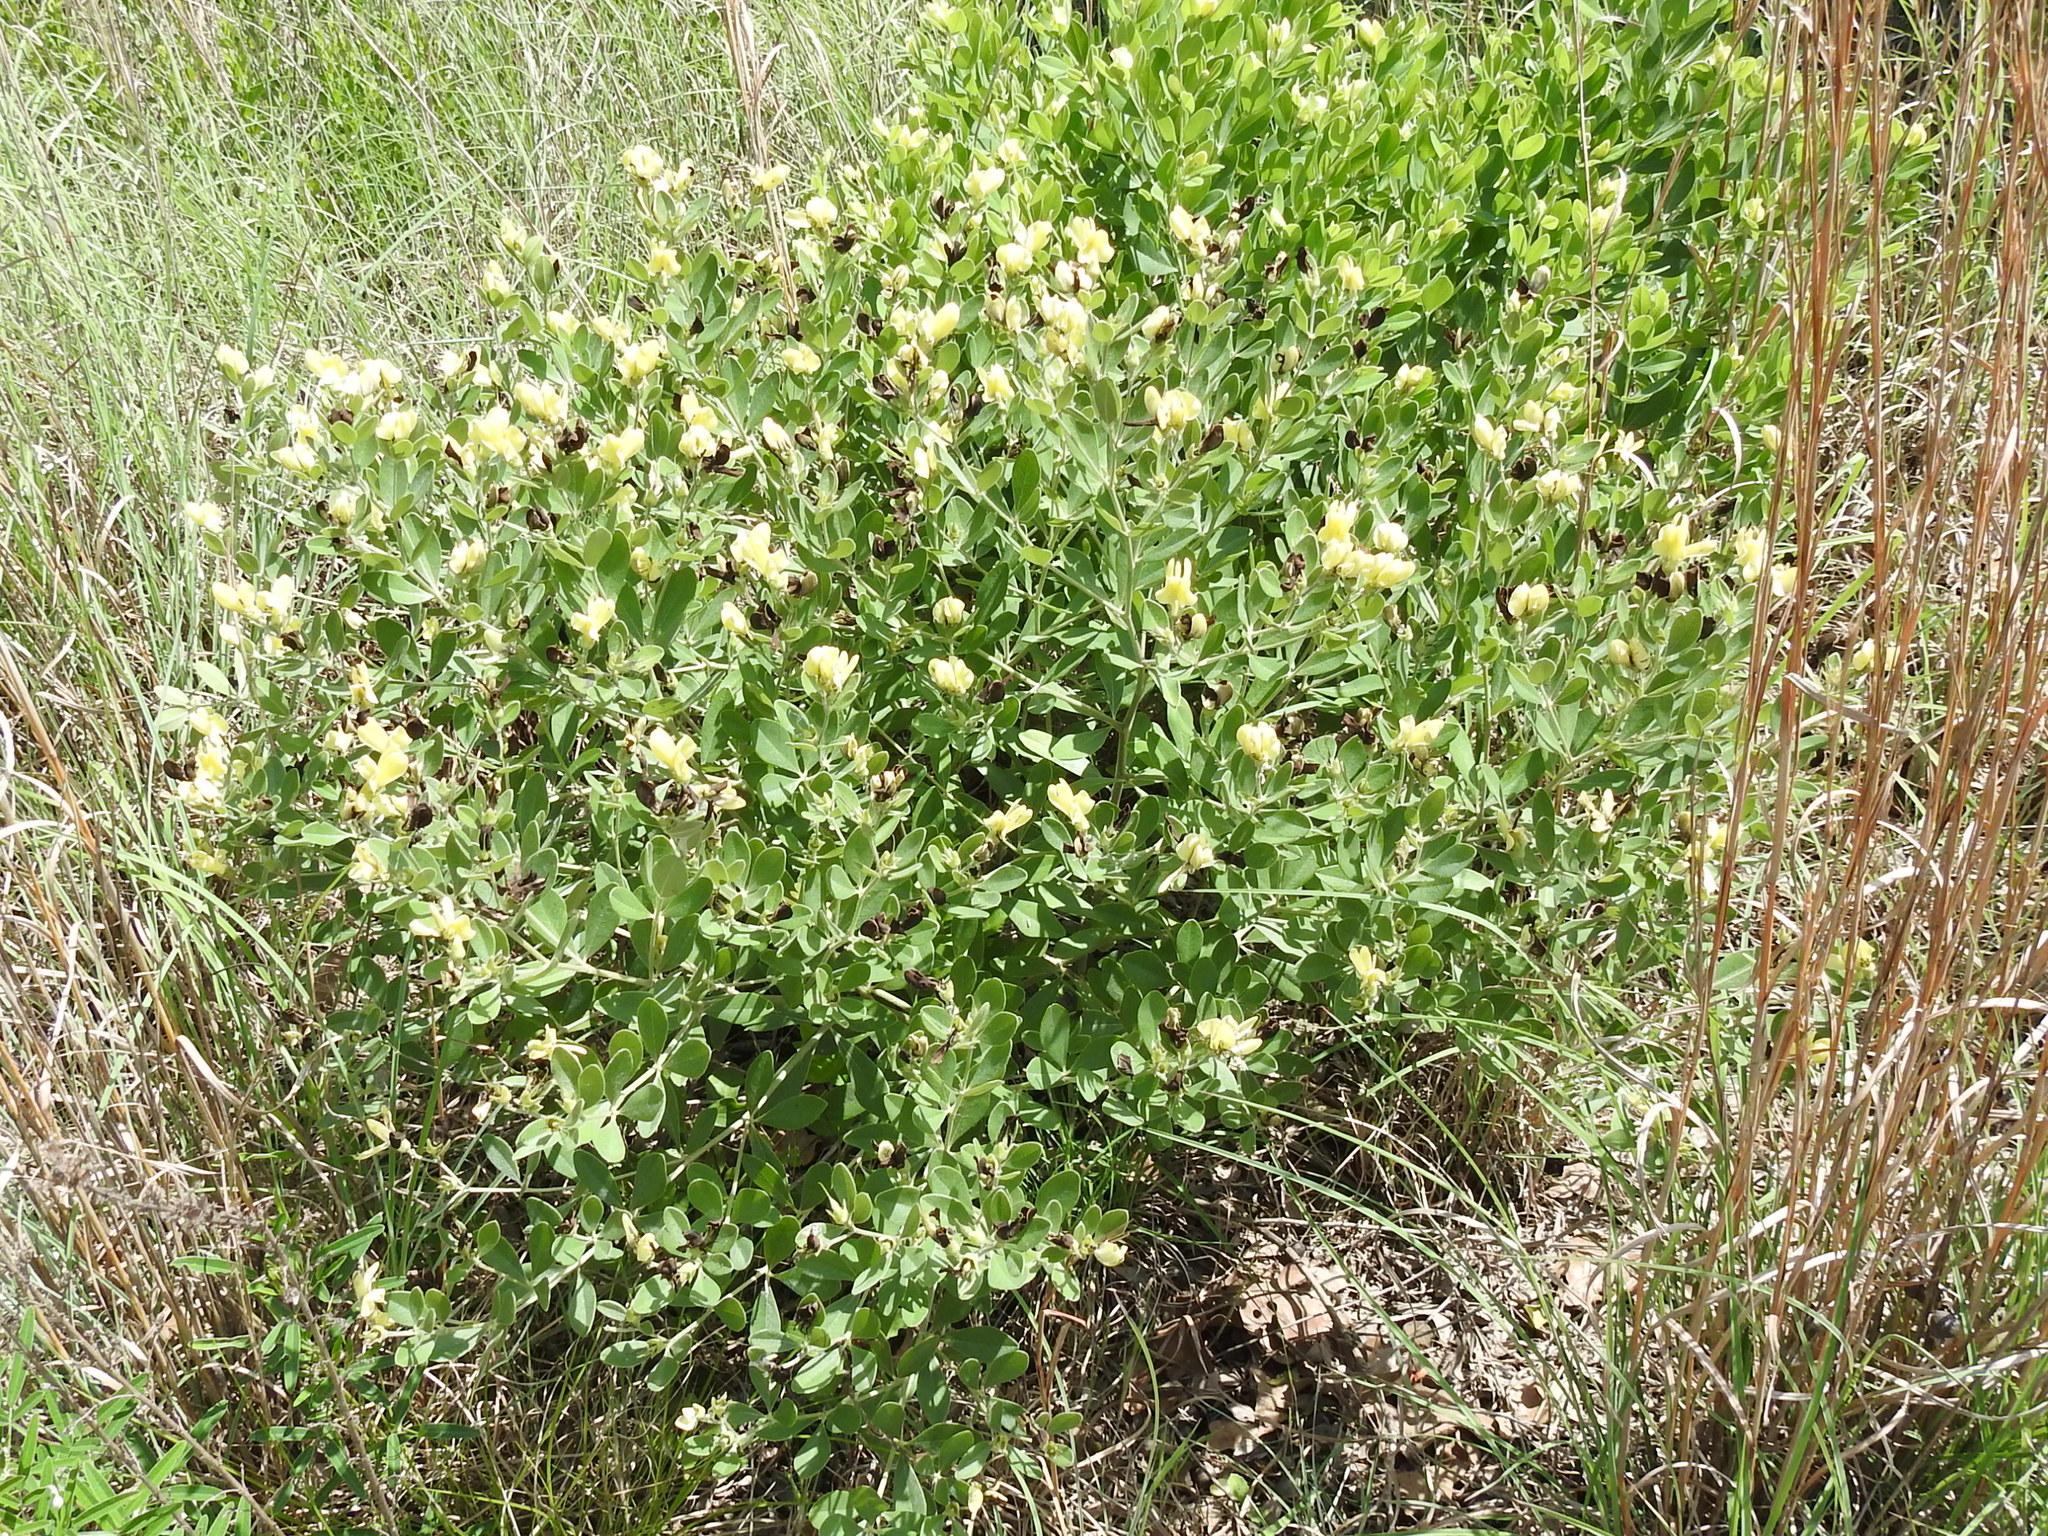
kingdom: Plantae
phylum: Tracheophyta
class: Magnoliopsida
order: Fabales
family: Fabaceae
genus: Baptisia
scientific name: Baptisia nuttalliana
